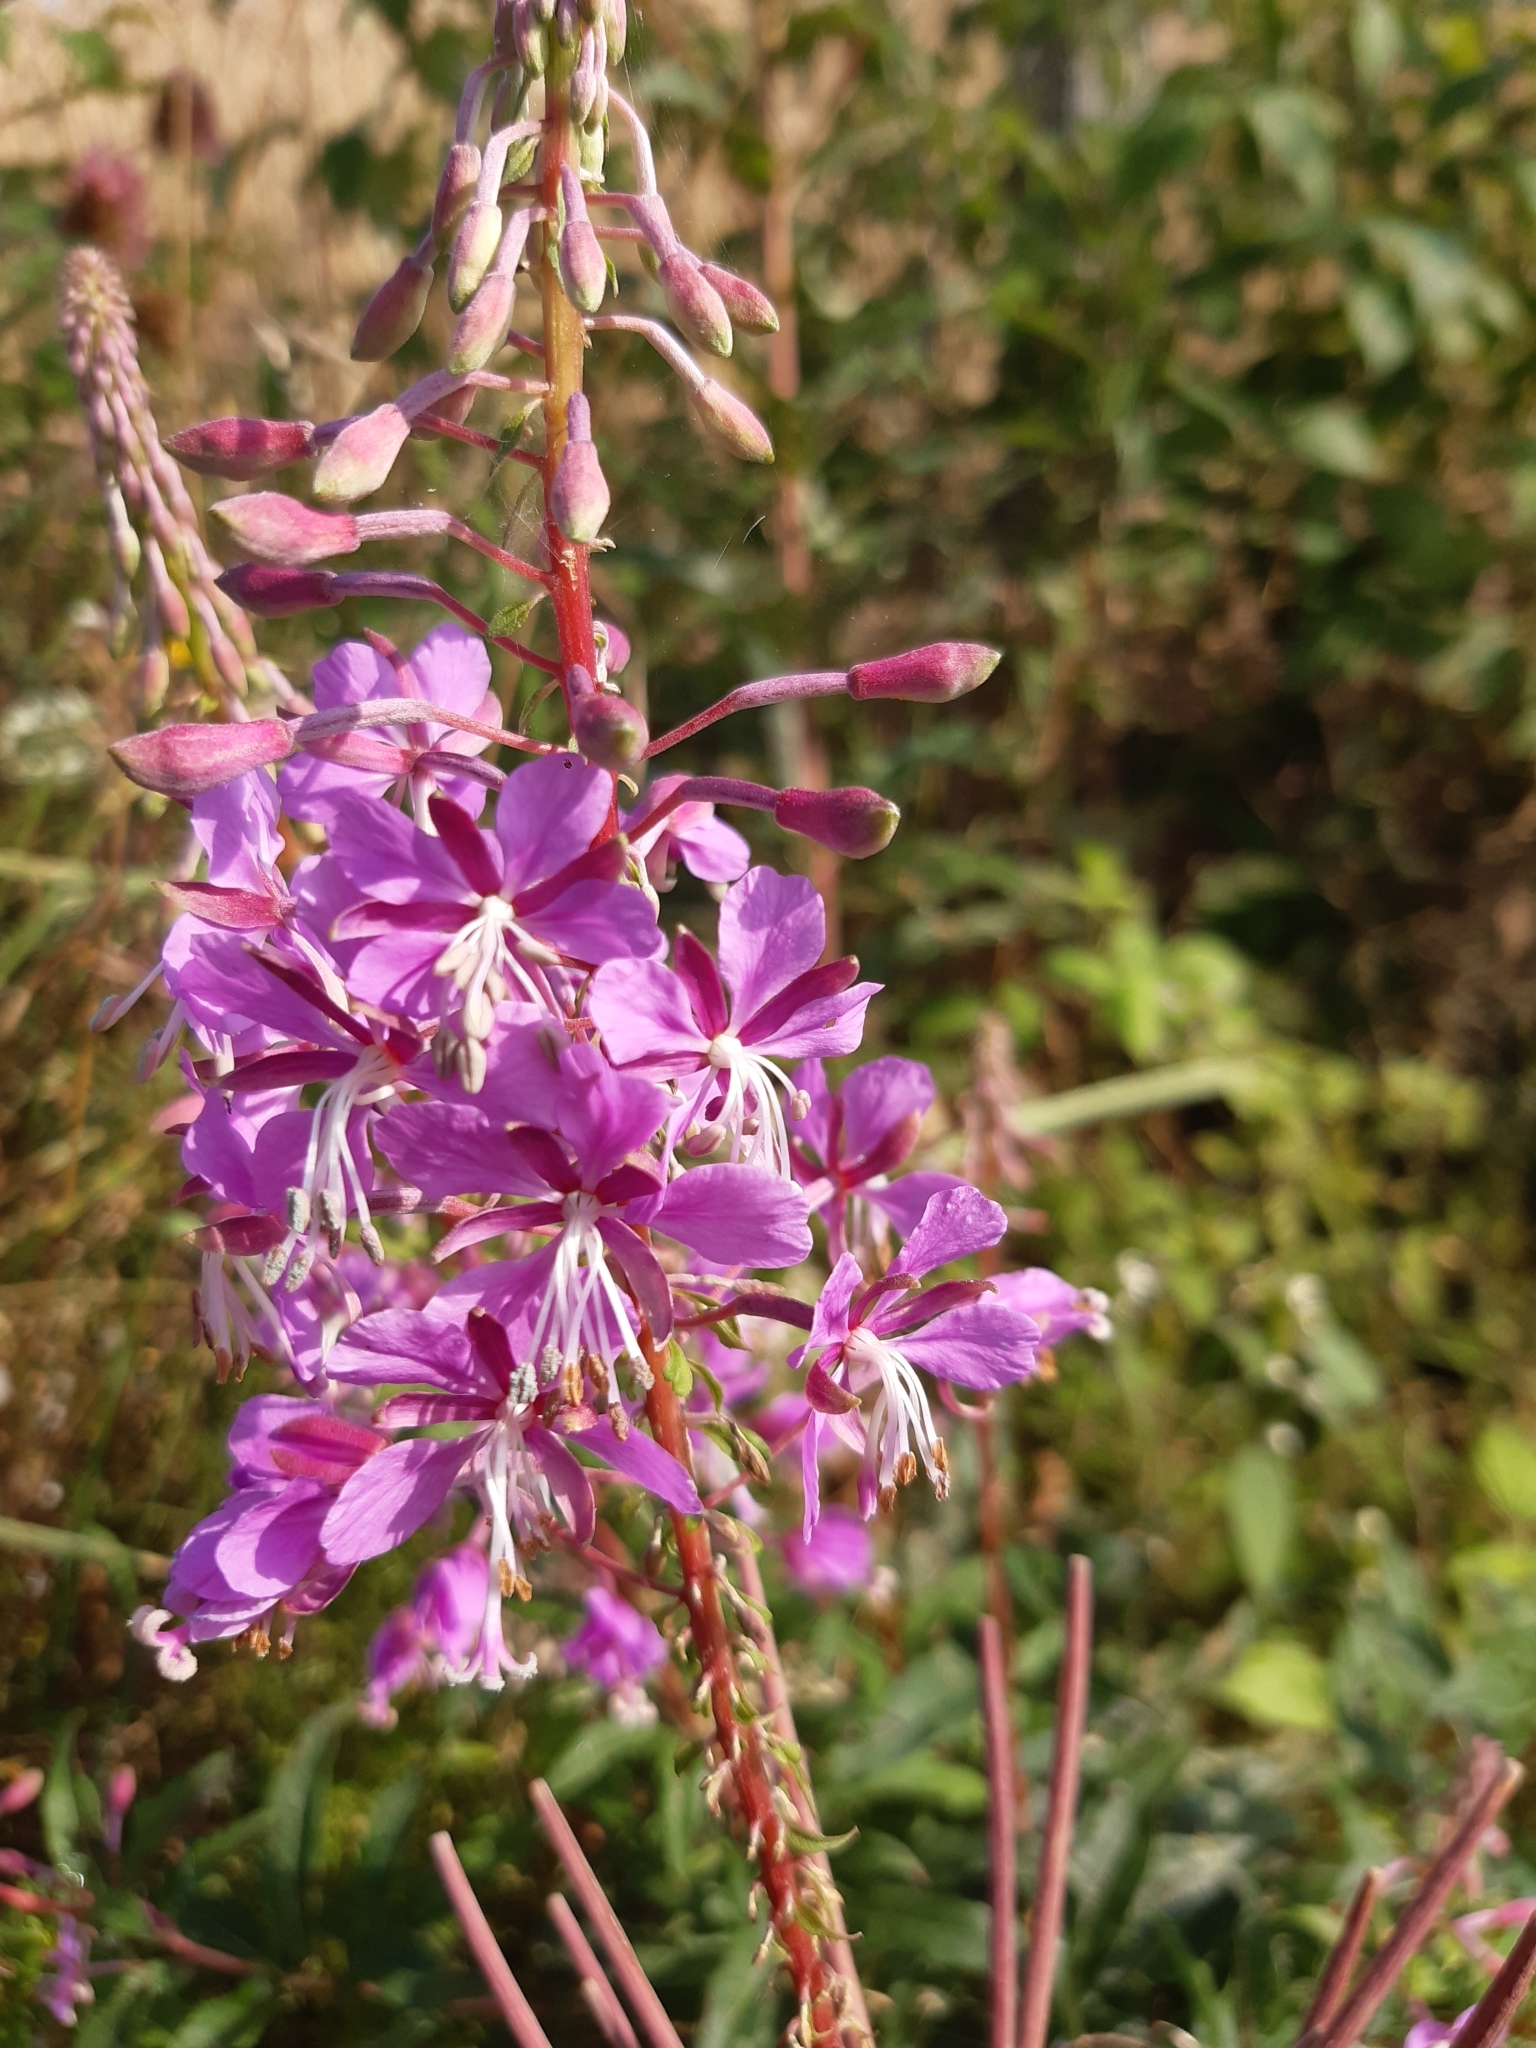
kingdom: Plantae
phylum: Tracheophyta
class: Magnoliopsida
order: Myrtales
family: Onagraceae
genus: Chamaenerion
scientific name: Chamaenerion angustifolium
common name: Fireweed
